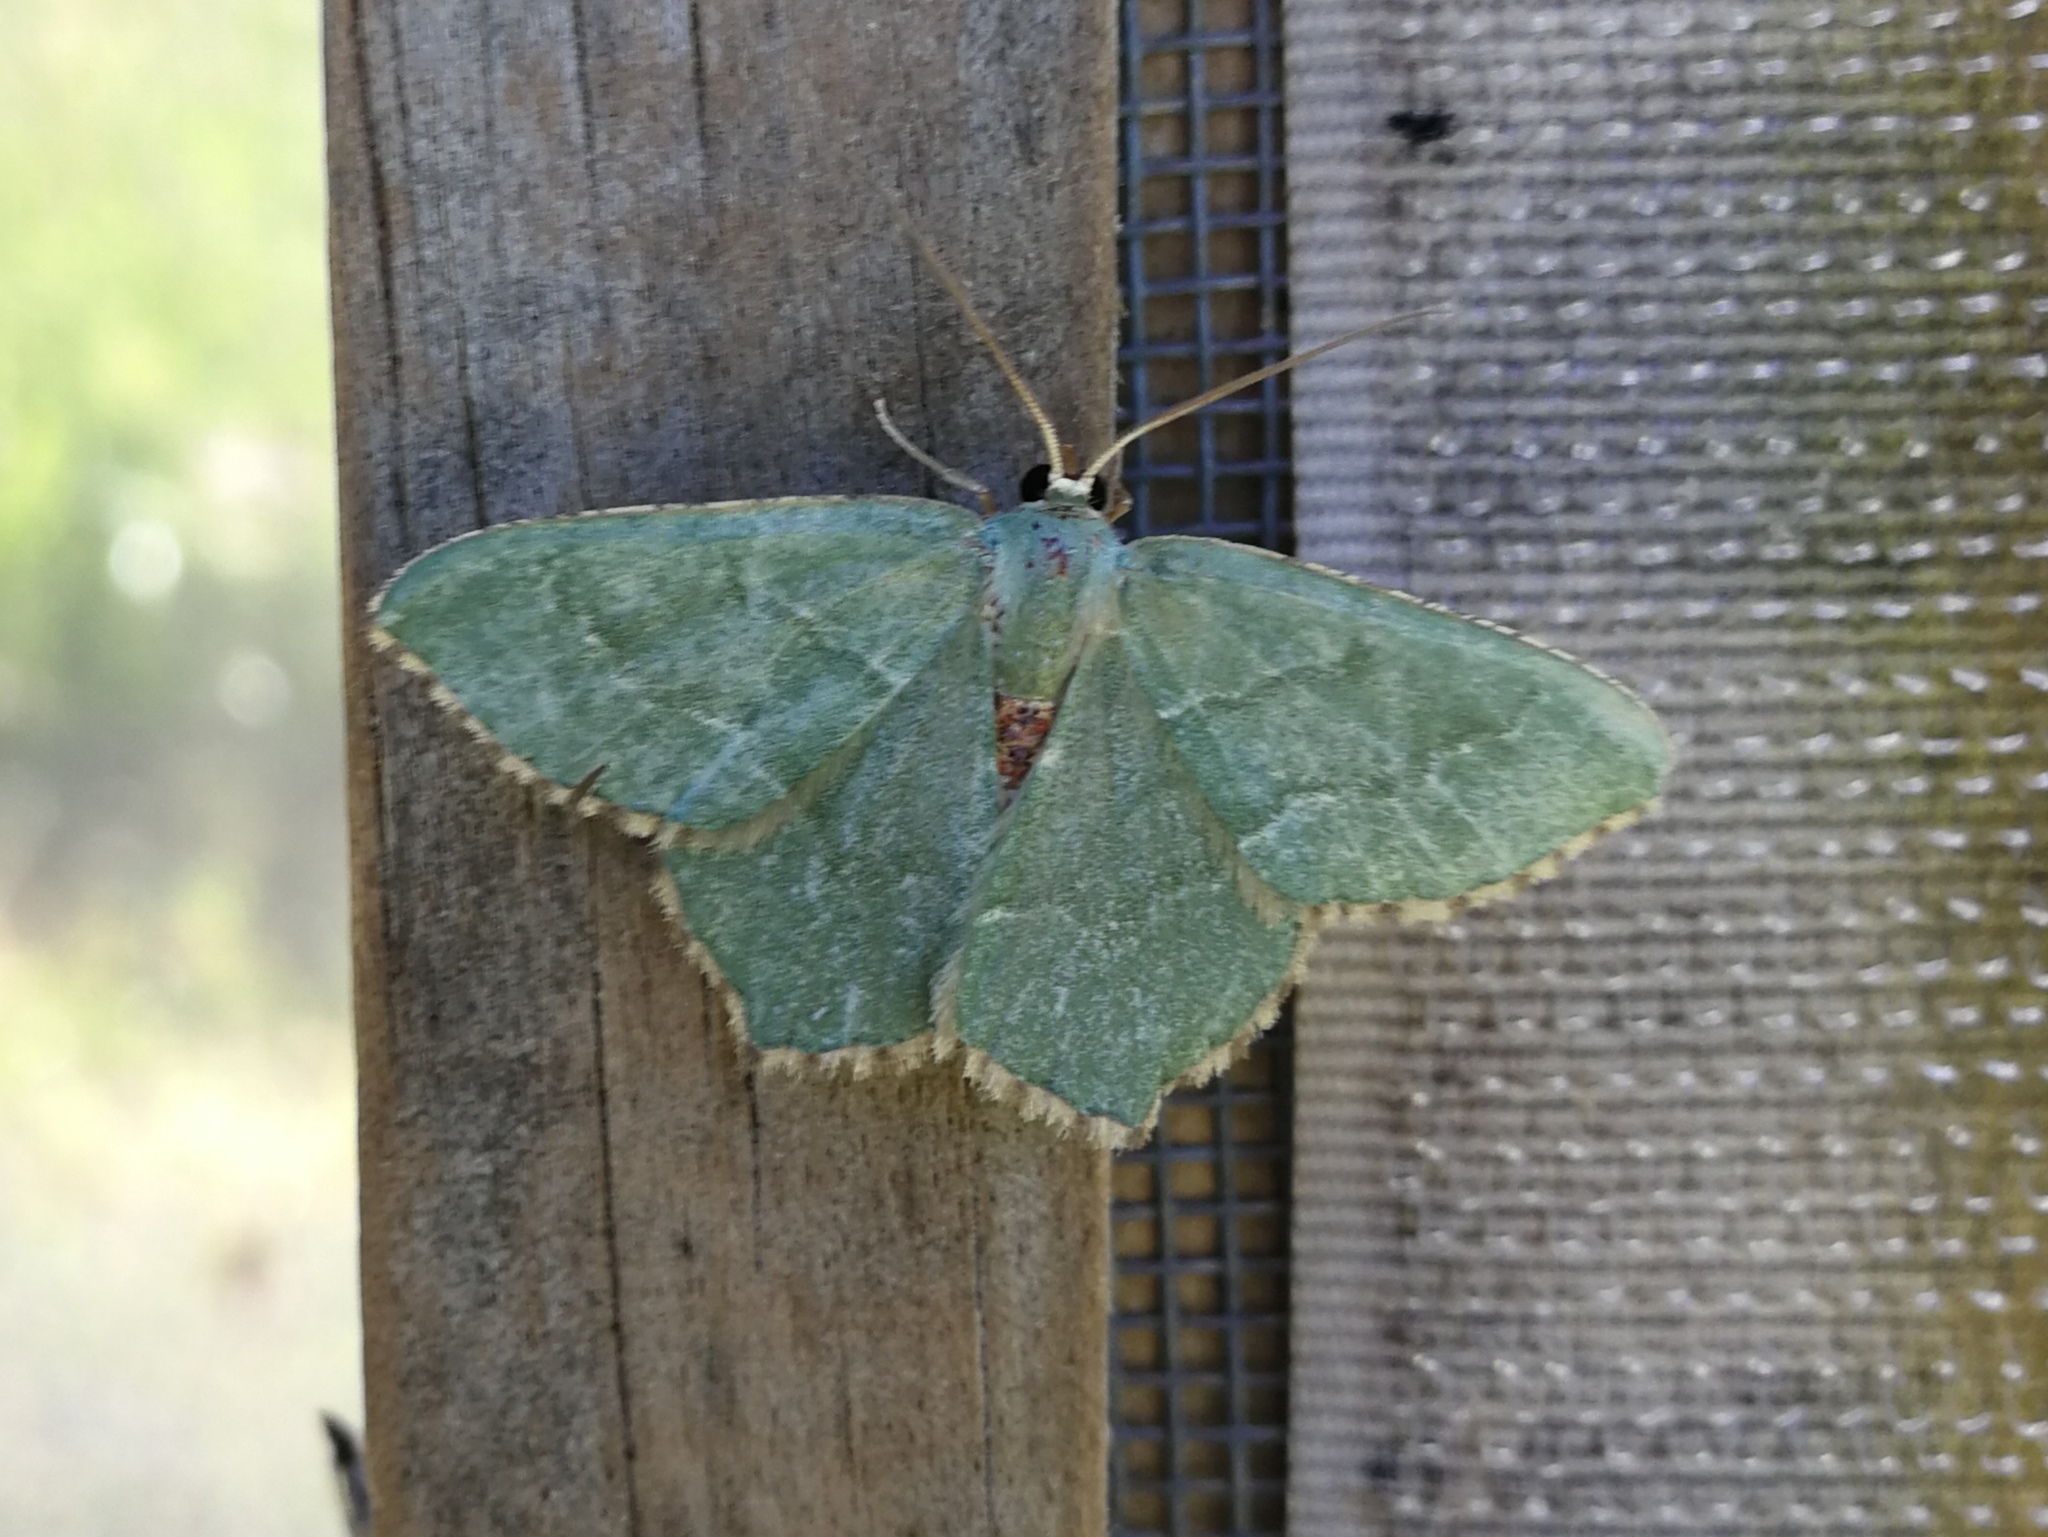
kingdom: Animalia
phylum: Arthropoda
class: Insecta
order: Lepidoptera
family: Geometridae
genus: Hemithea
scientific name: Hemithea aestivaria
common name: Common emerald
